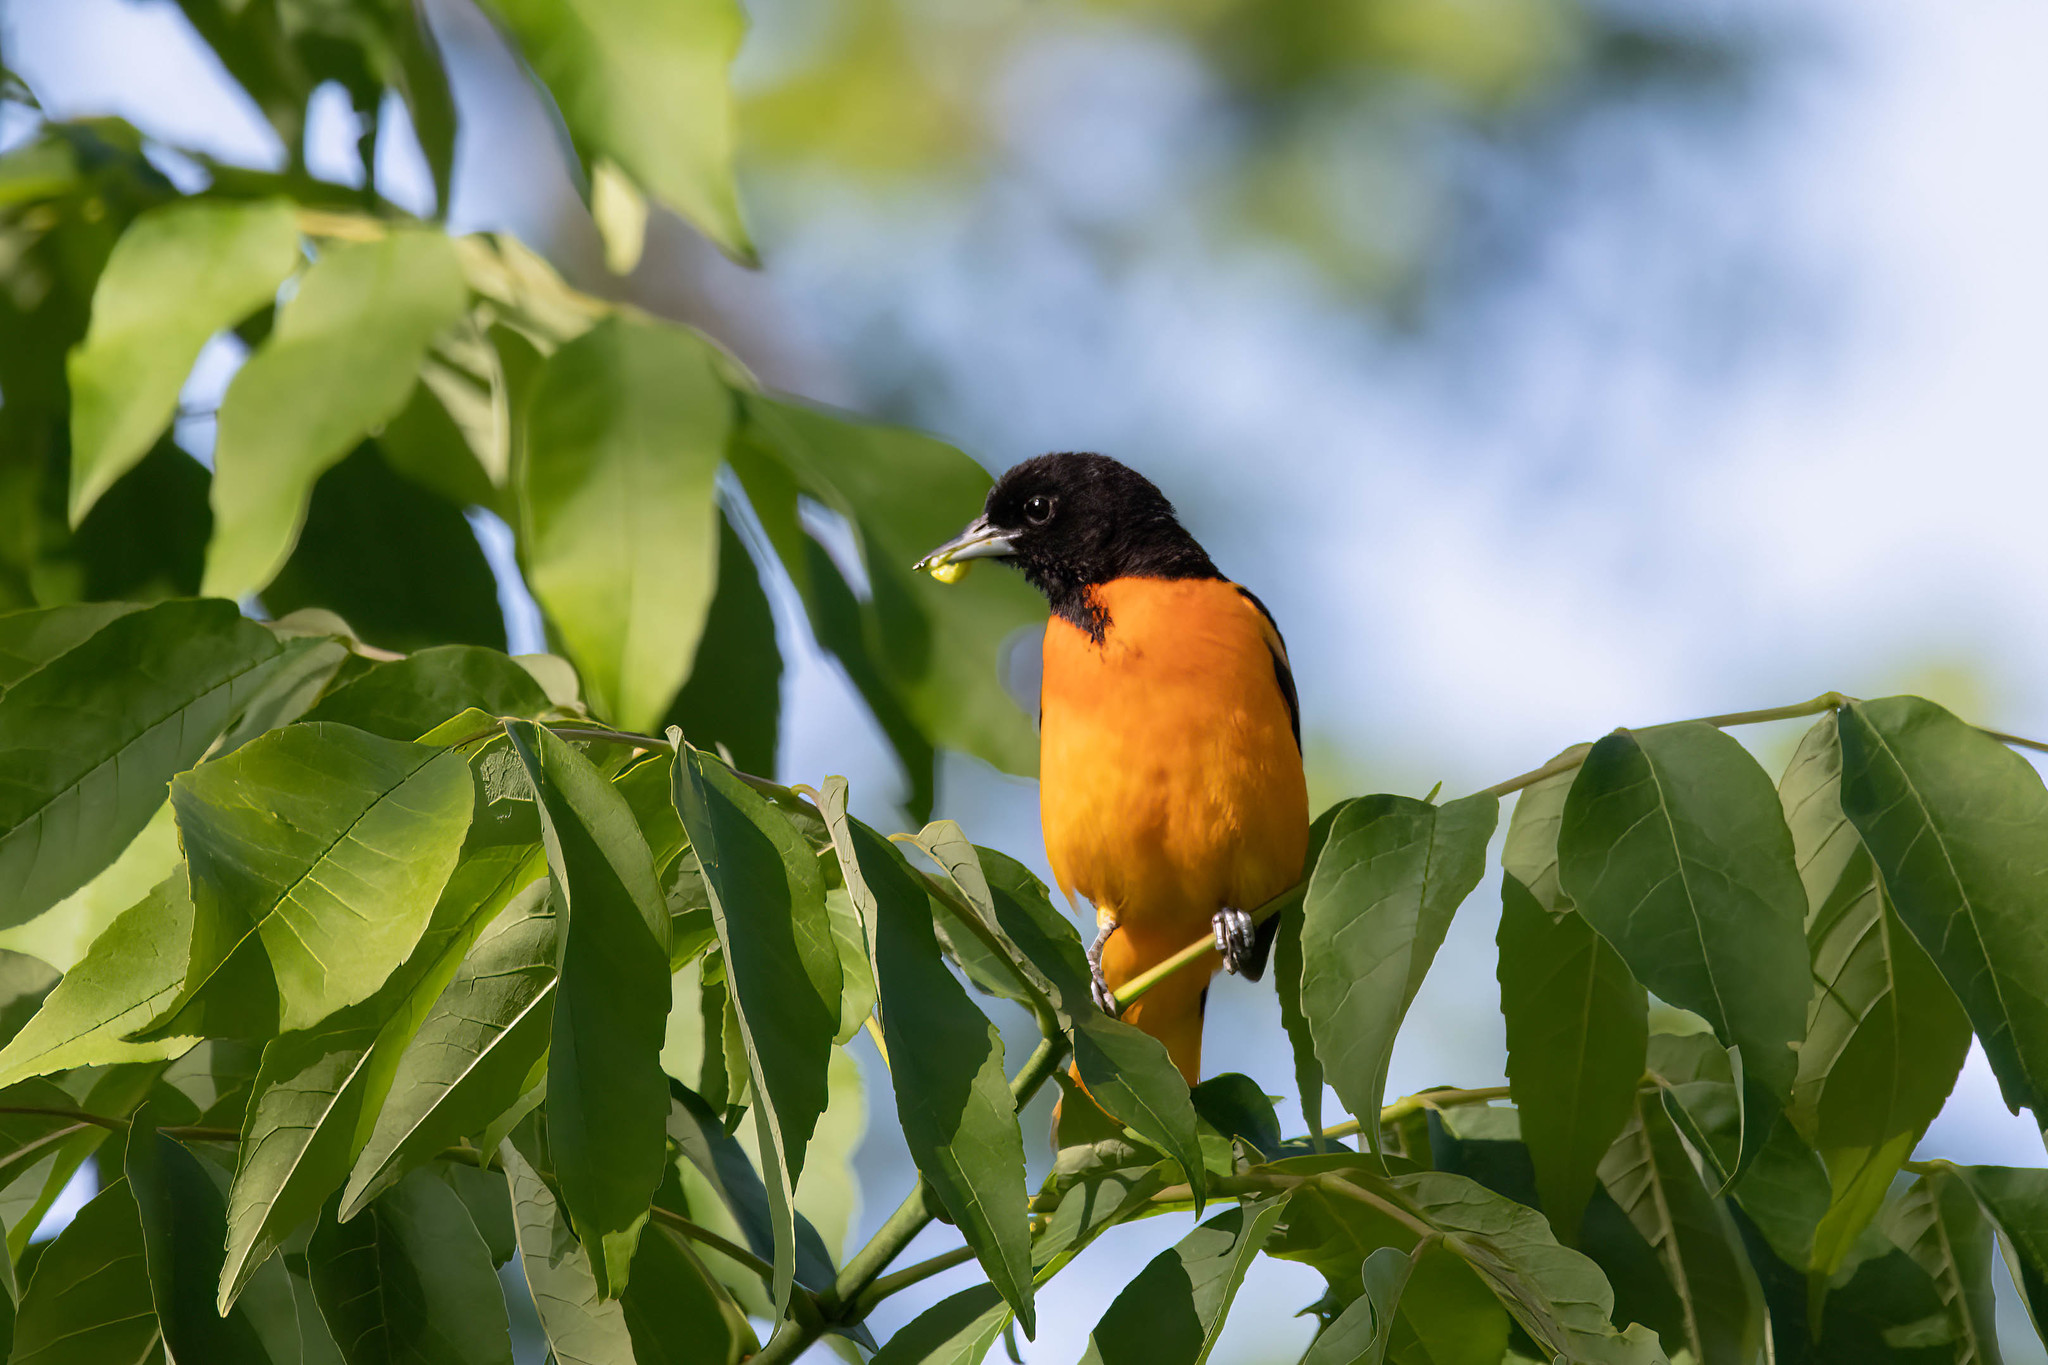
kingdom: Animalia
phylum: Chordata
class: Aves
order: Passeriformes
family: Icteridae
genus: Icterus
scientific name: Icterus galbula
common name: Baltimore oriole
